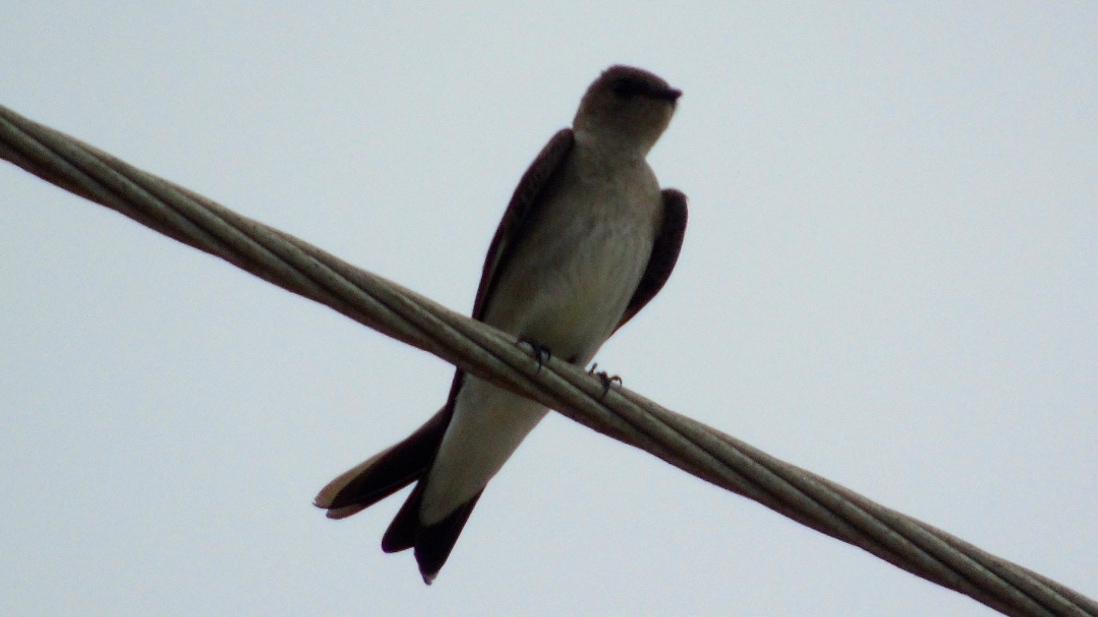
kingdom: Animalia
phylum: Chordata
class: Aves
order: Passeriformes
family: Hirundinidae
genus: Stelgidopteryx
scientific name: Stelgidopteryx serripennis
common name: Northern rough-winged swallow
